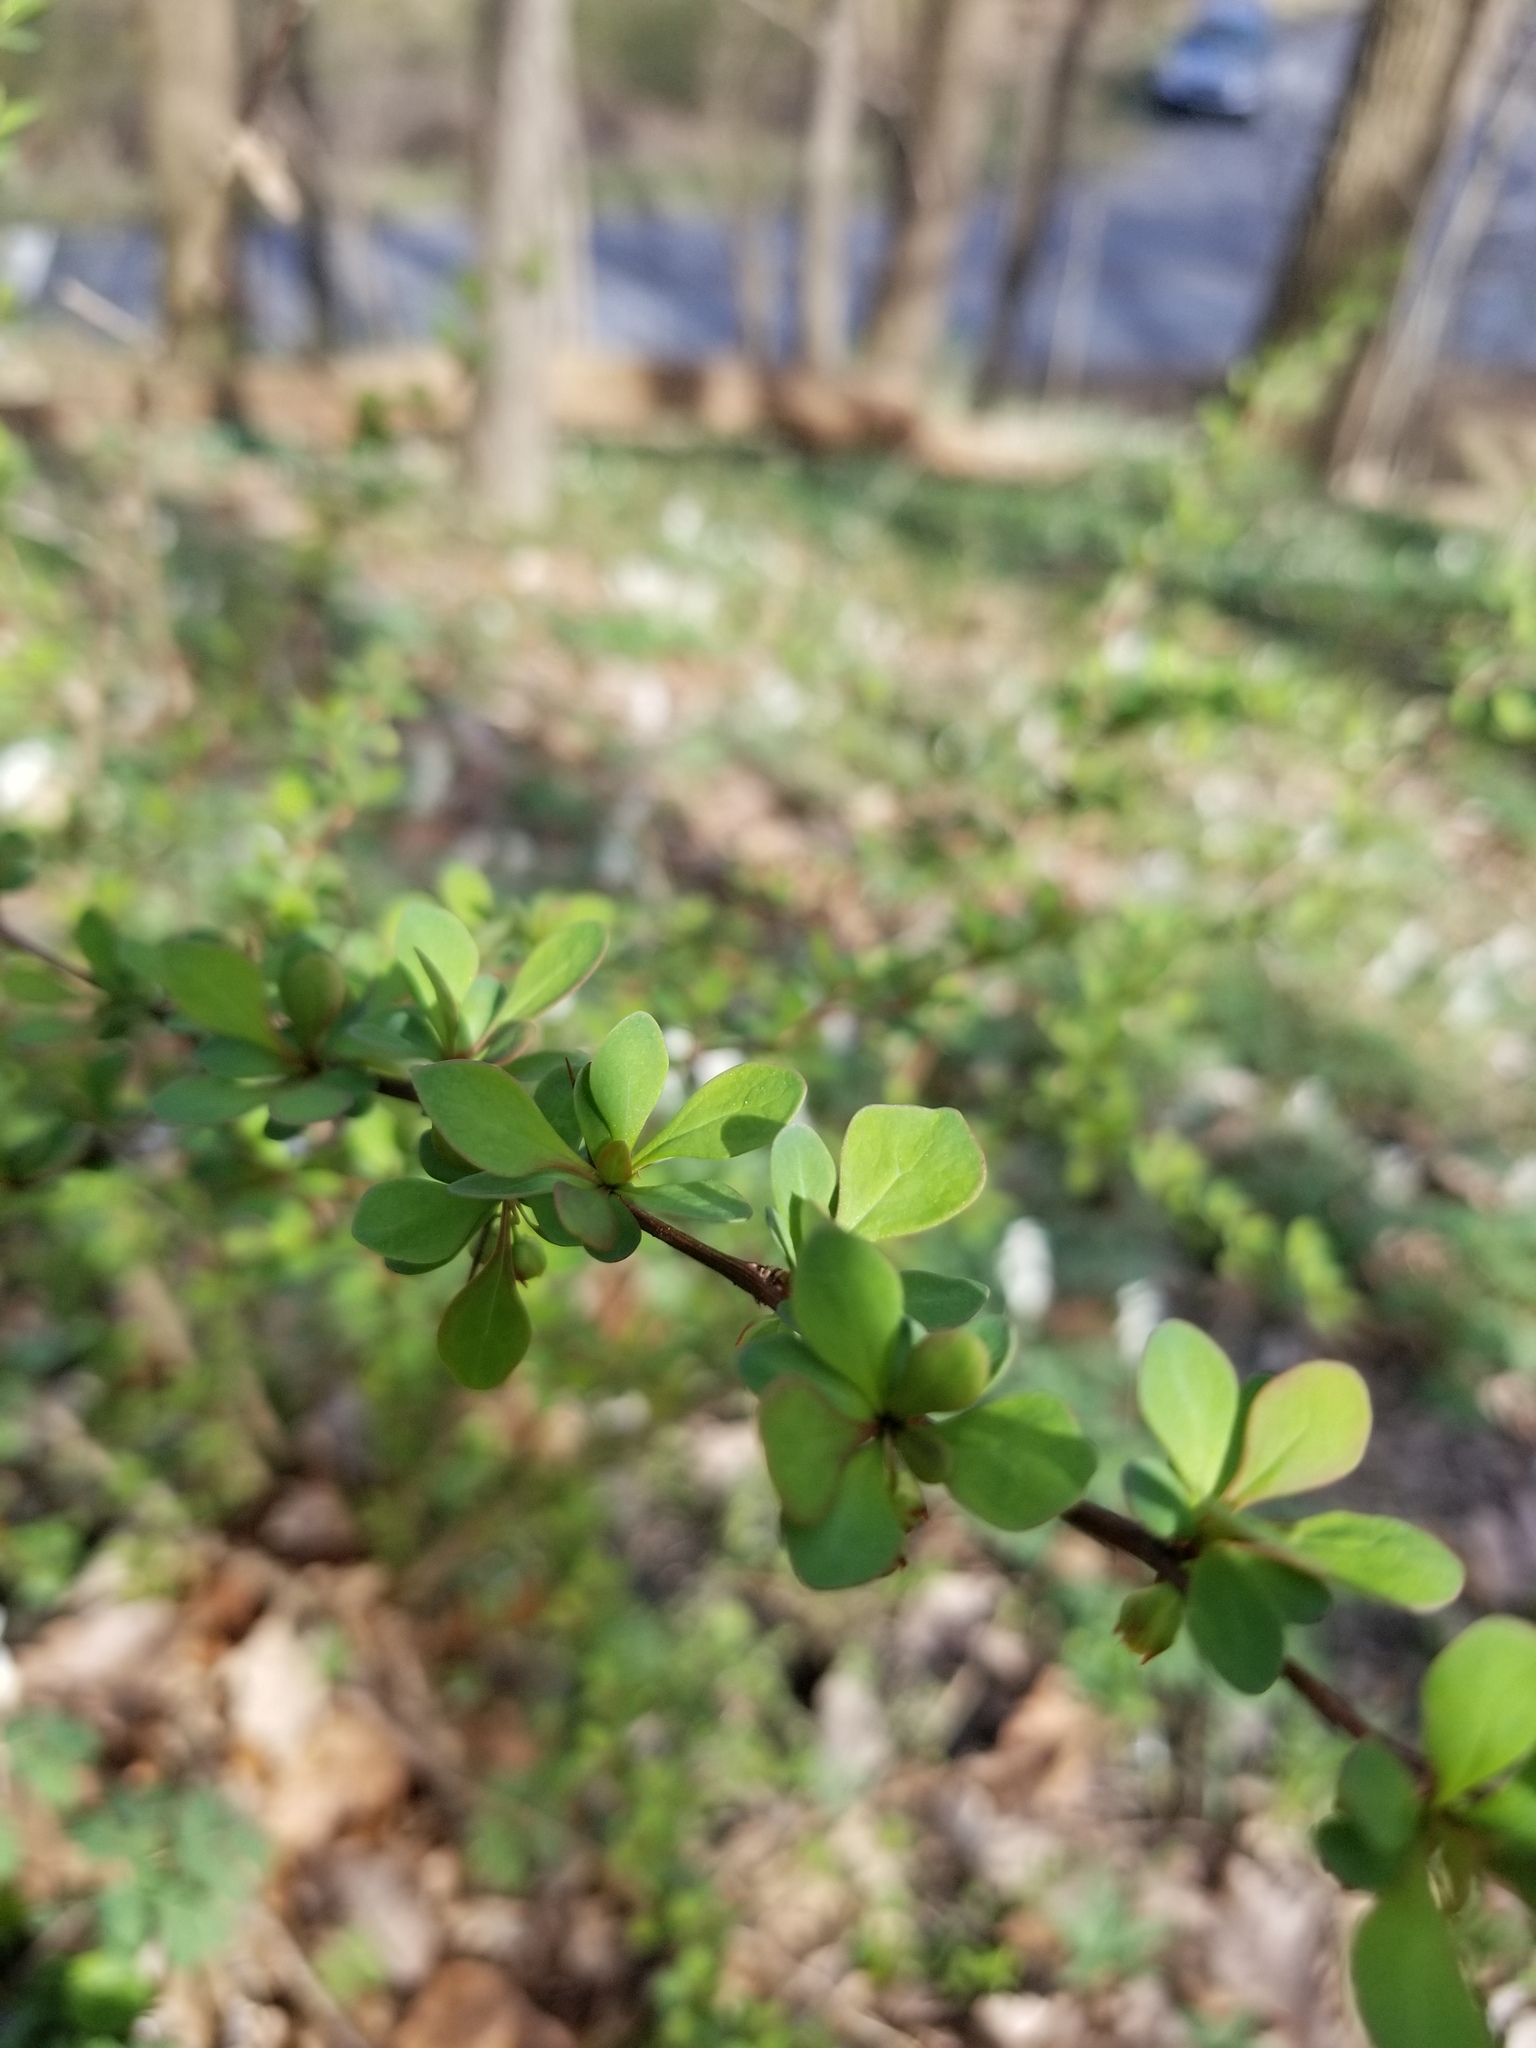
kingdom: Plantae
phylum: Tracheophyta
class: Magnoliopsida
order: Ranunculales
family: Berberidaceae
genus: Berberis
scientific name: Berberis thunbergii
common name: Japanese barberry
